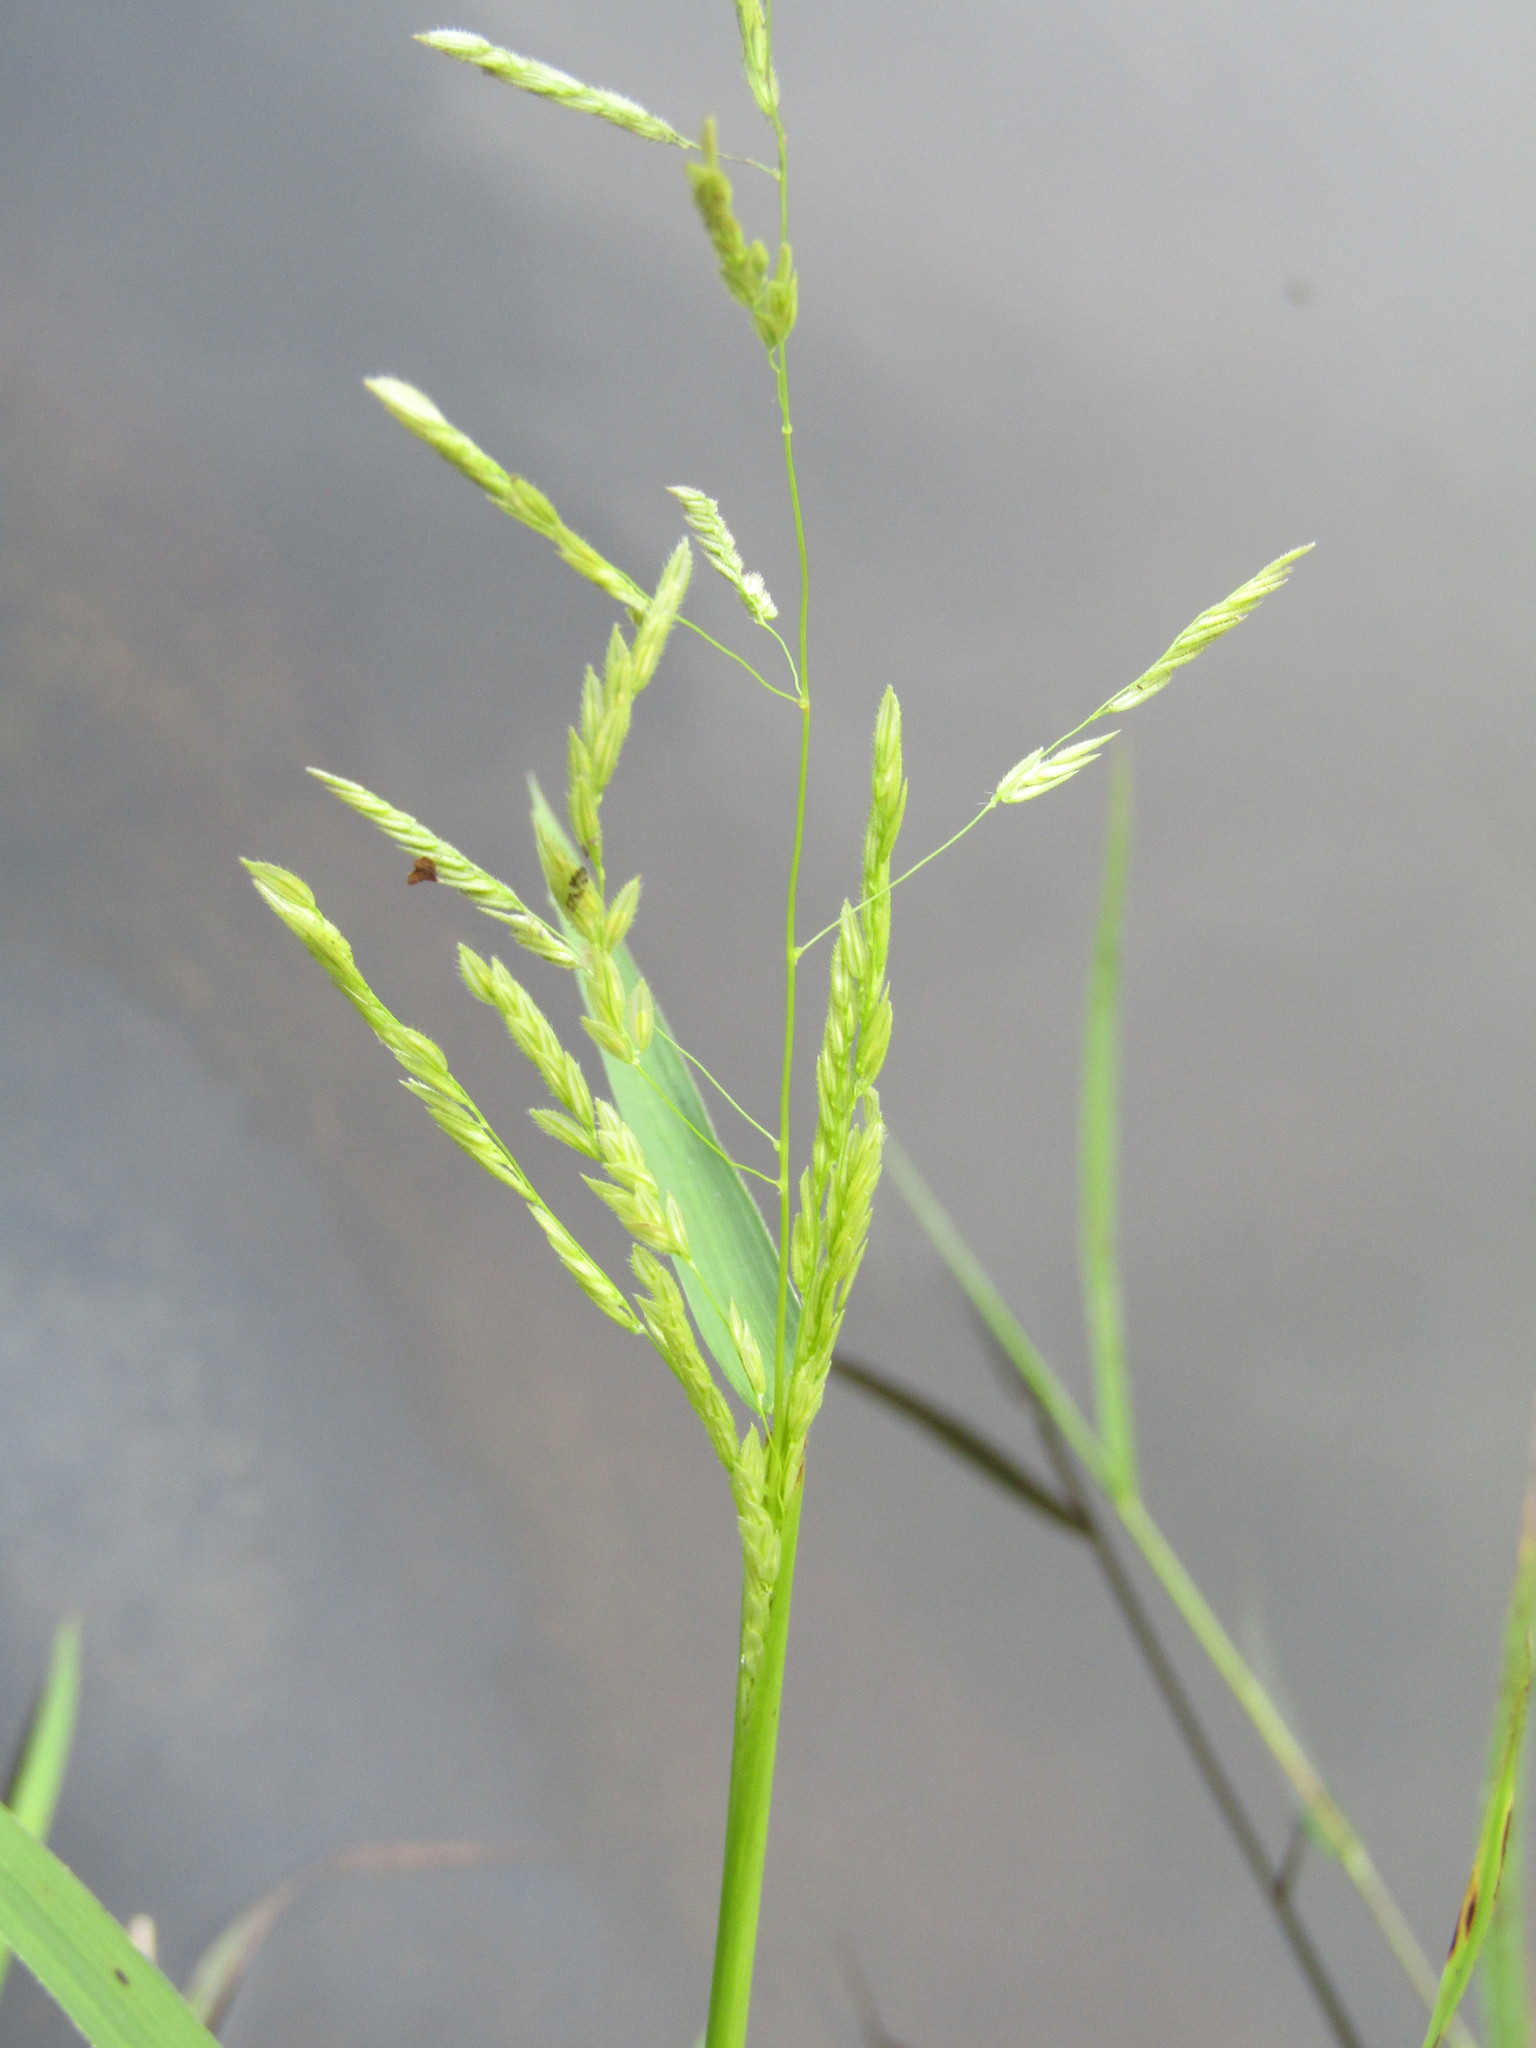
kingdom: Plantae
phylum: Tracheophyta
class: Liliopsida
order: Poales
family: Poaceae
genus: Leersia
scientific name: Leersia oryzoides
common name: Cut-grass
